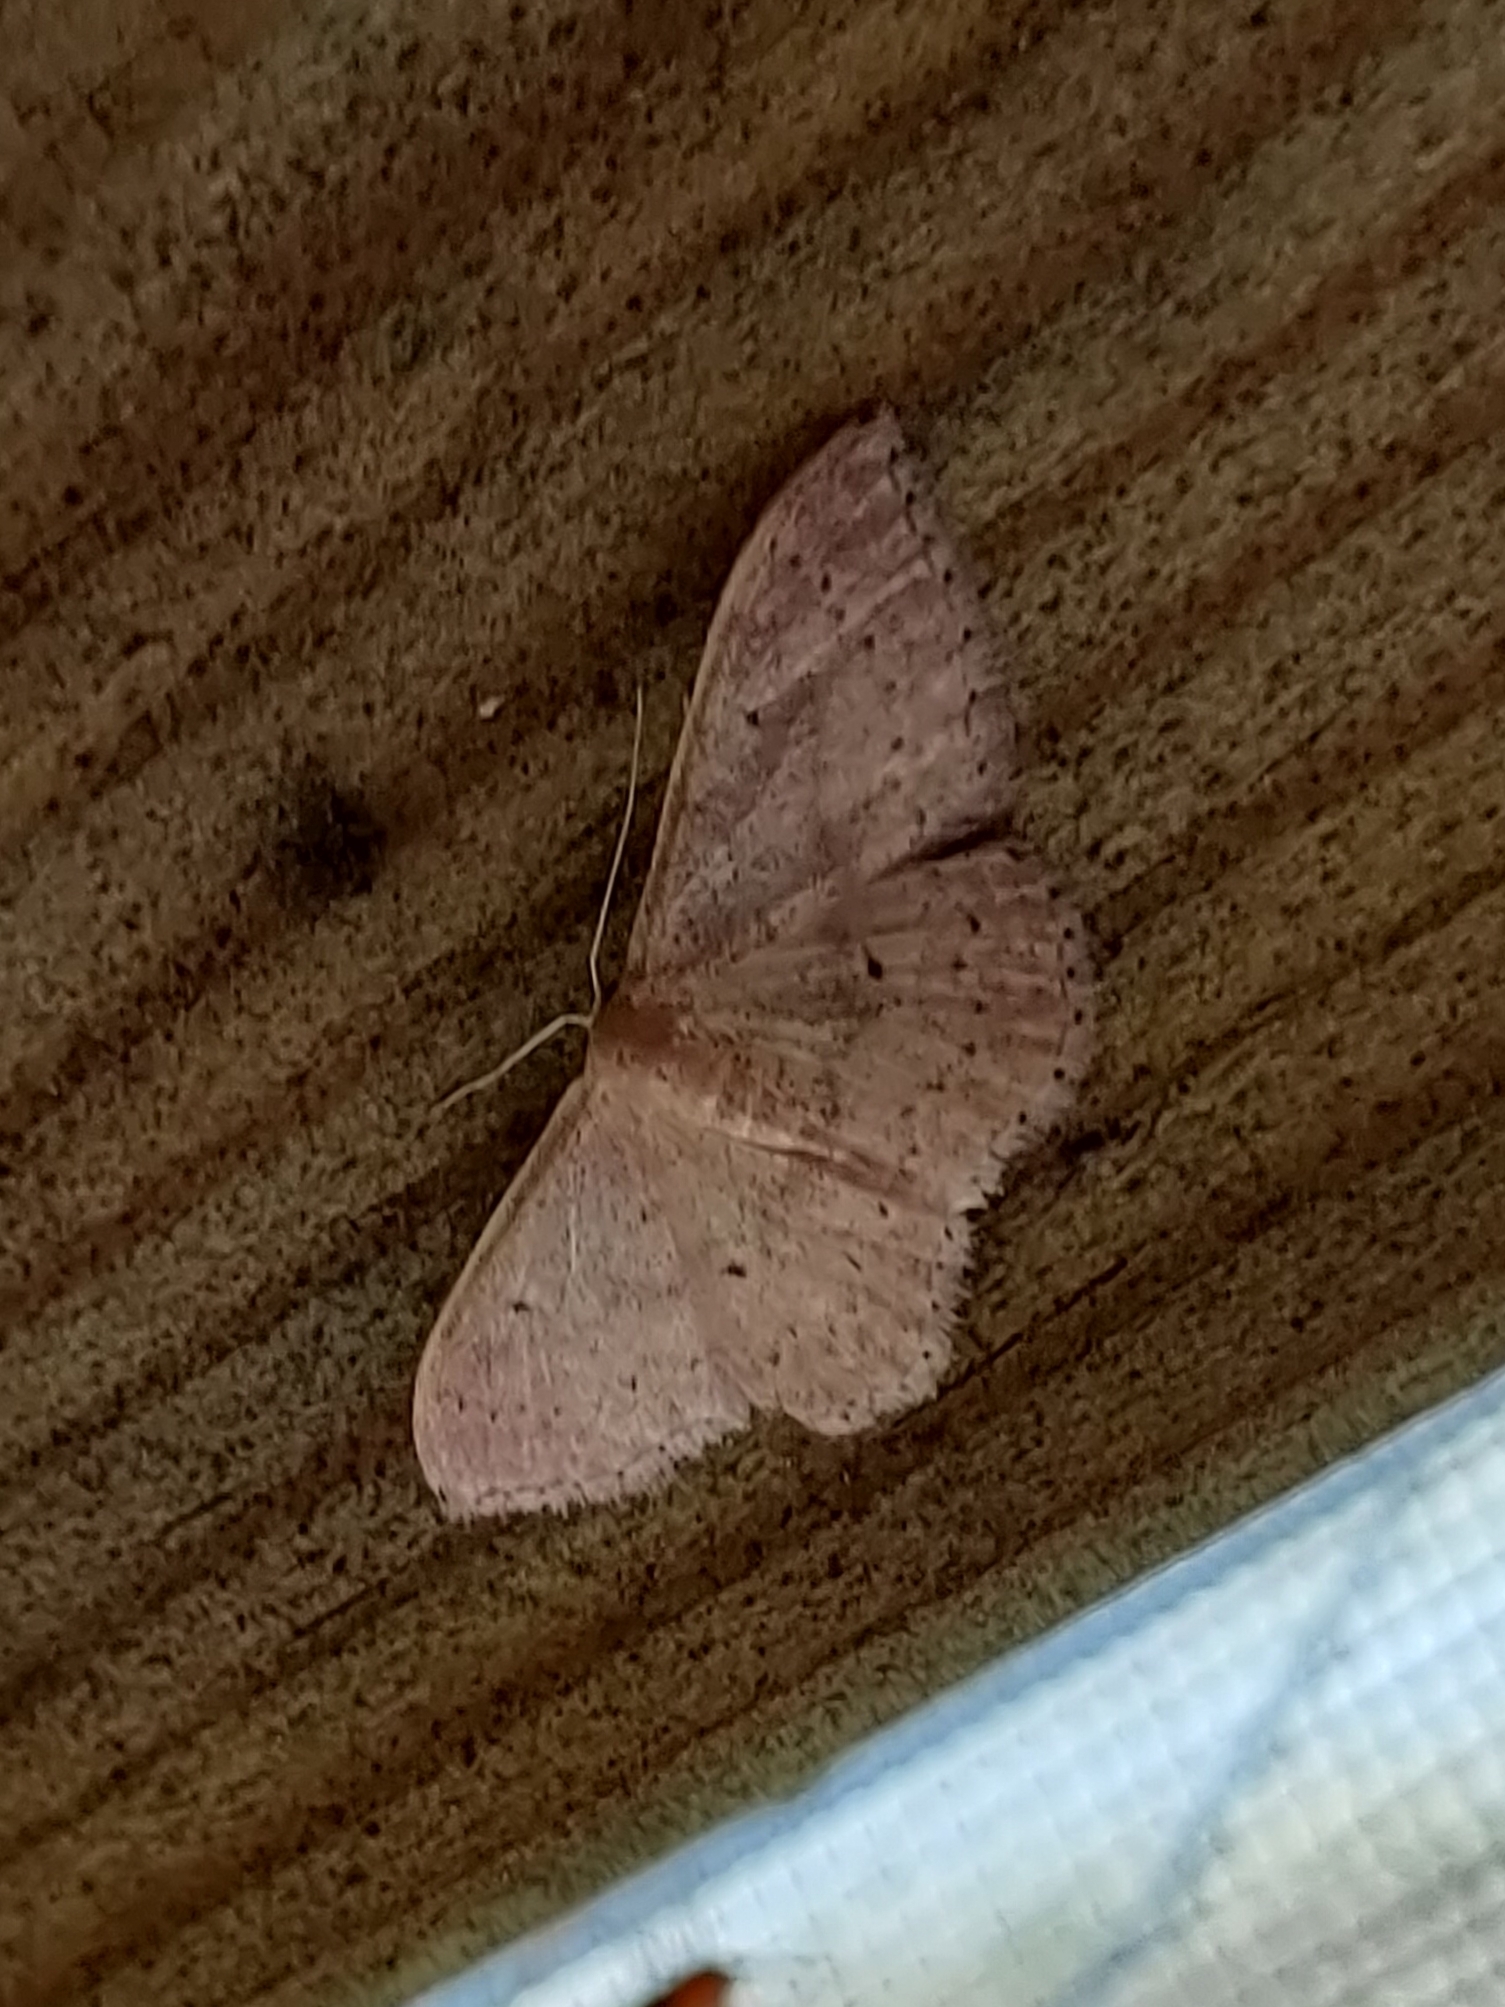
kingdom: Animalia
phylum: Arthropoda
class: Insecta
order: Lepidoptera
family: Geometridae
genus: Idaea
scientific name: Idaea eugeniata
